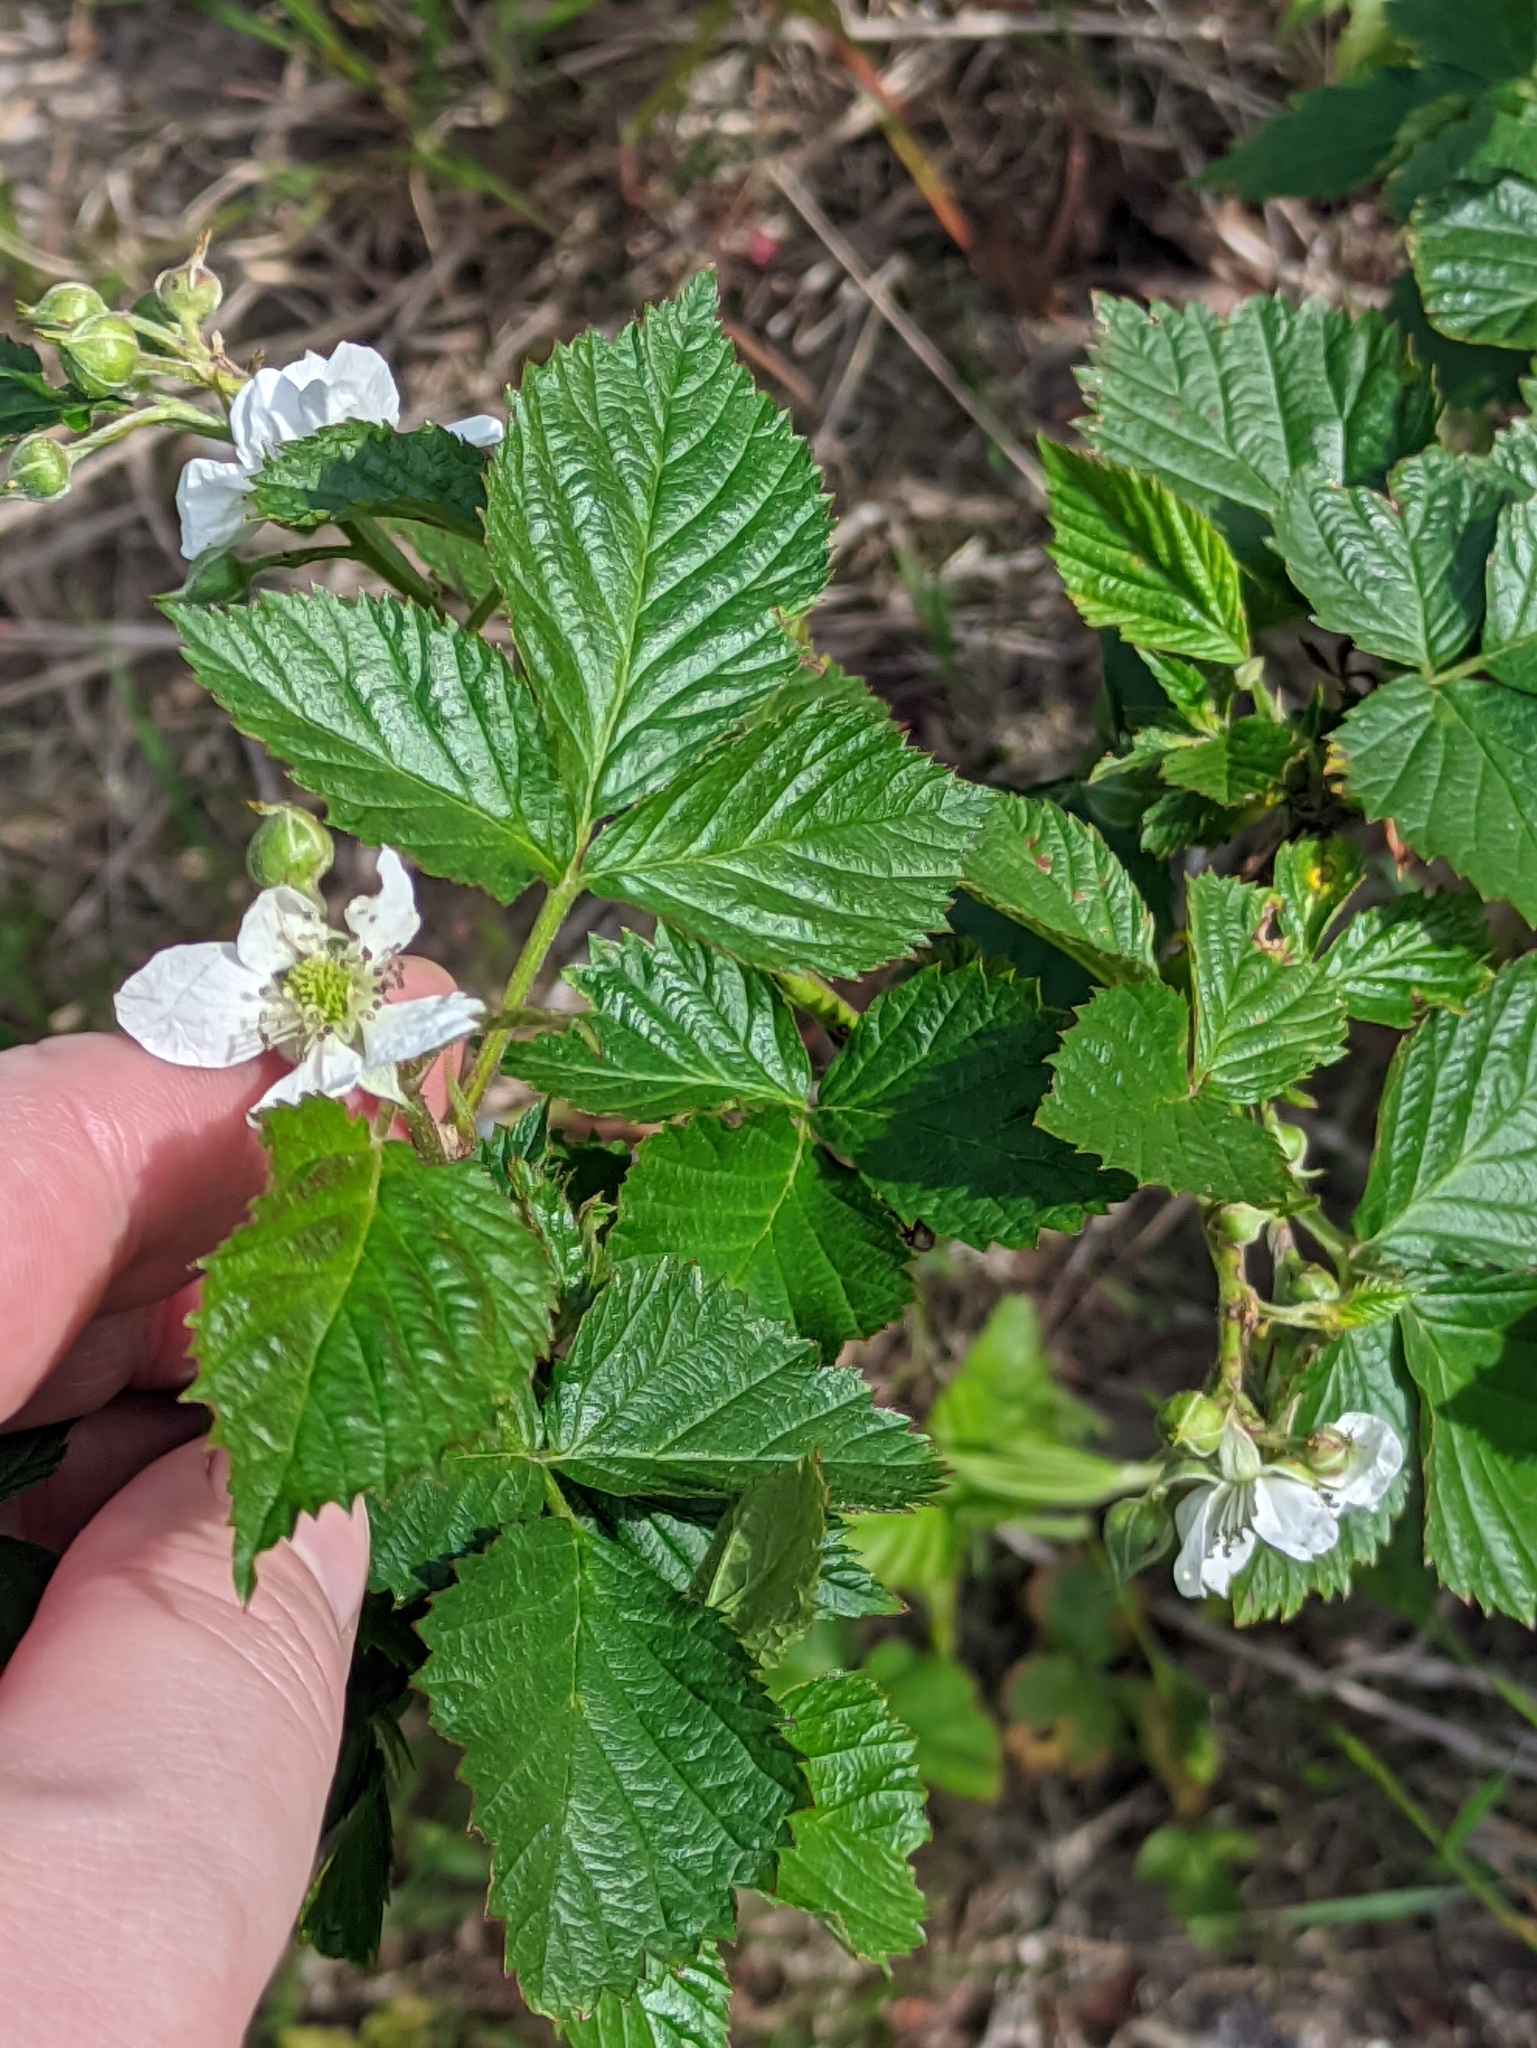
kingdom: Plantae
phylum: Tracheophyta
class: Magnoliopsida
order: Rosales
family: Rosaceae
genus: Rubus
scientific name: Rubus polonicus
